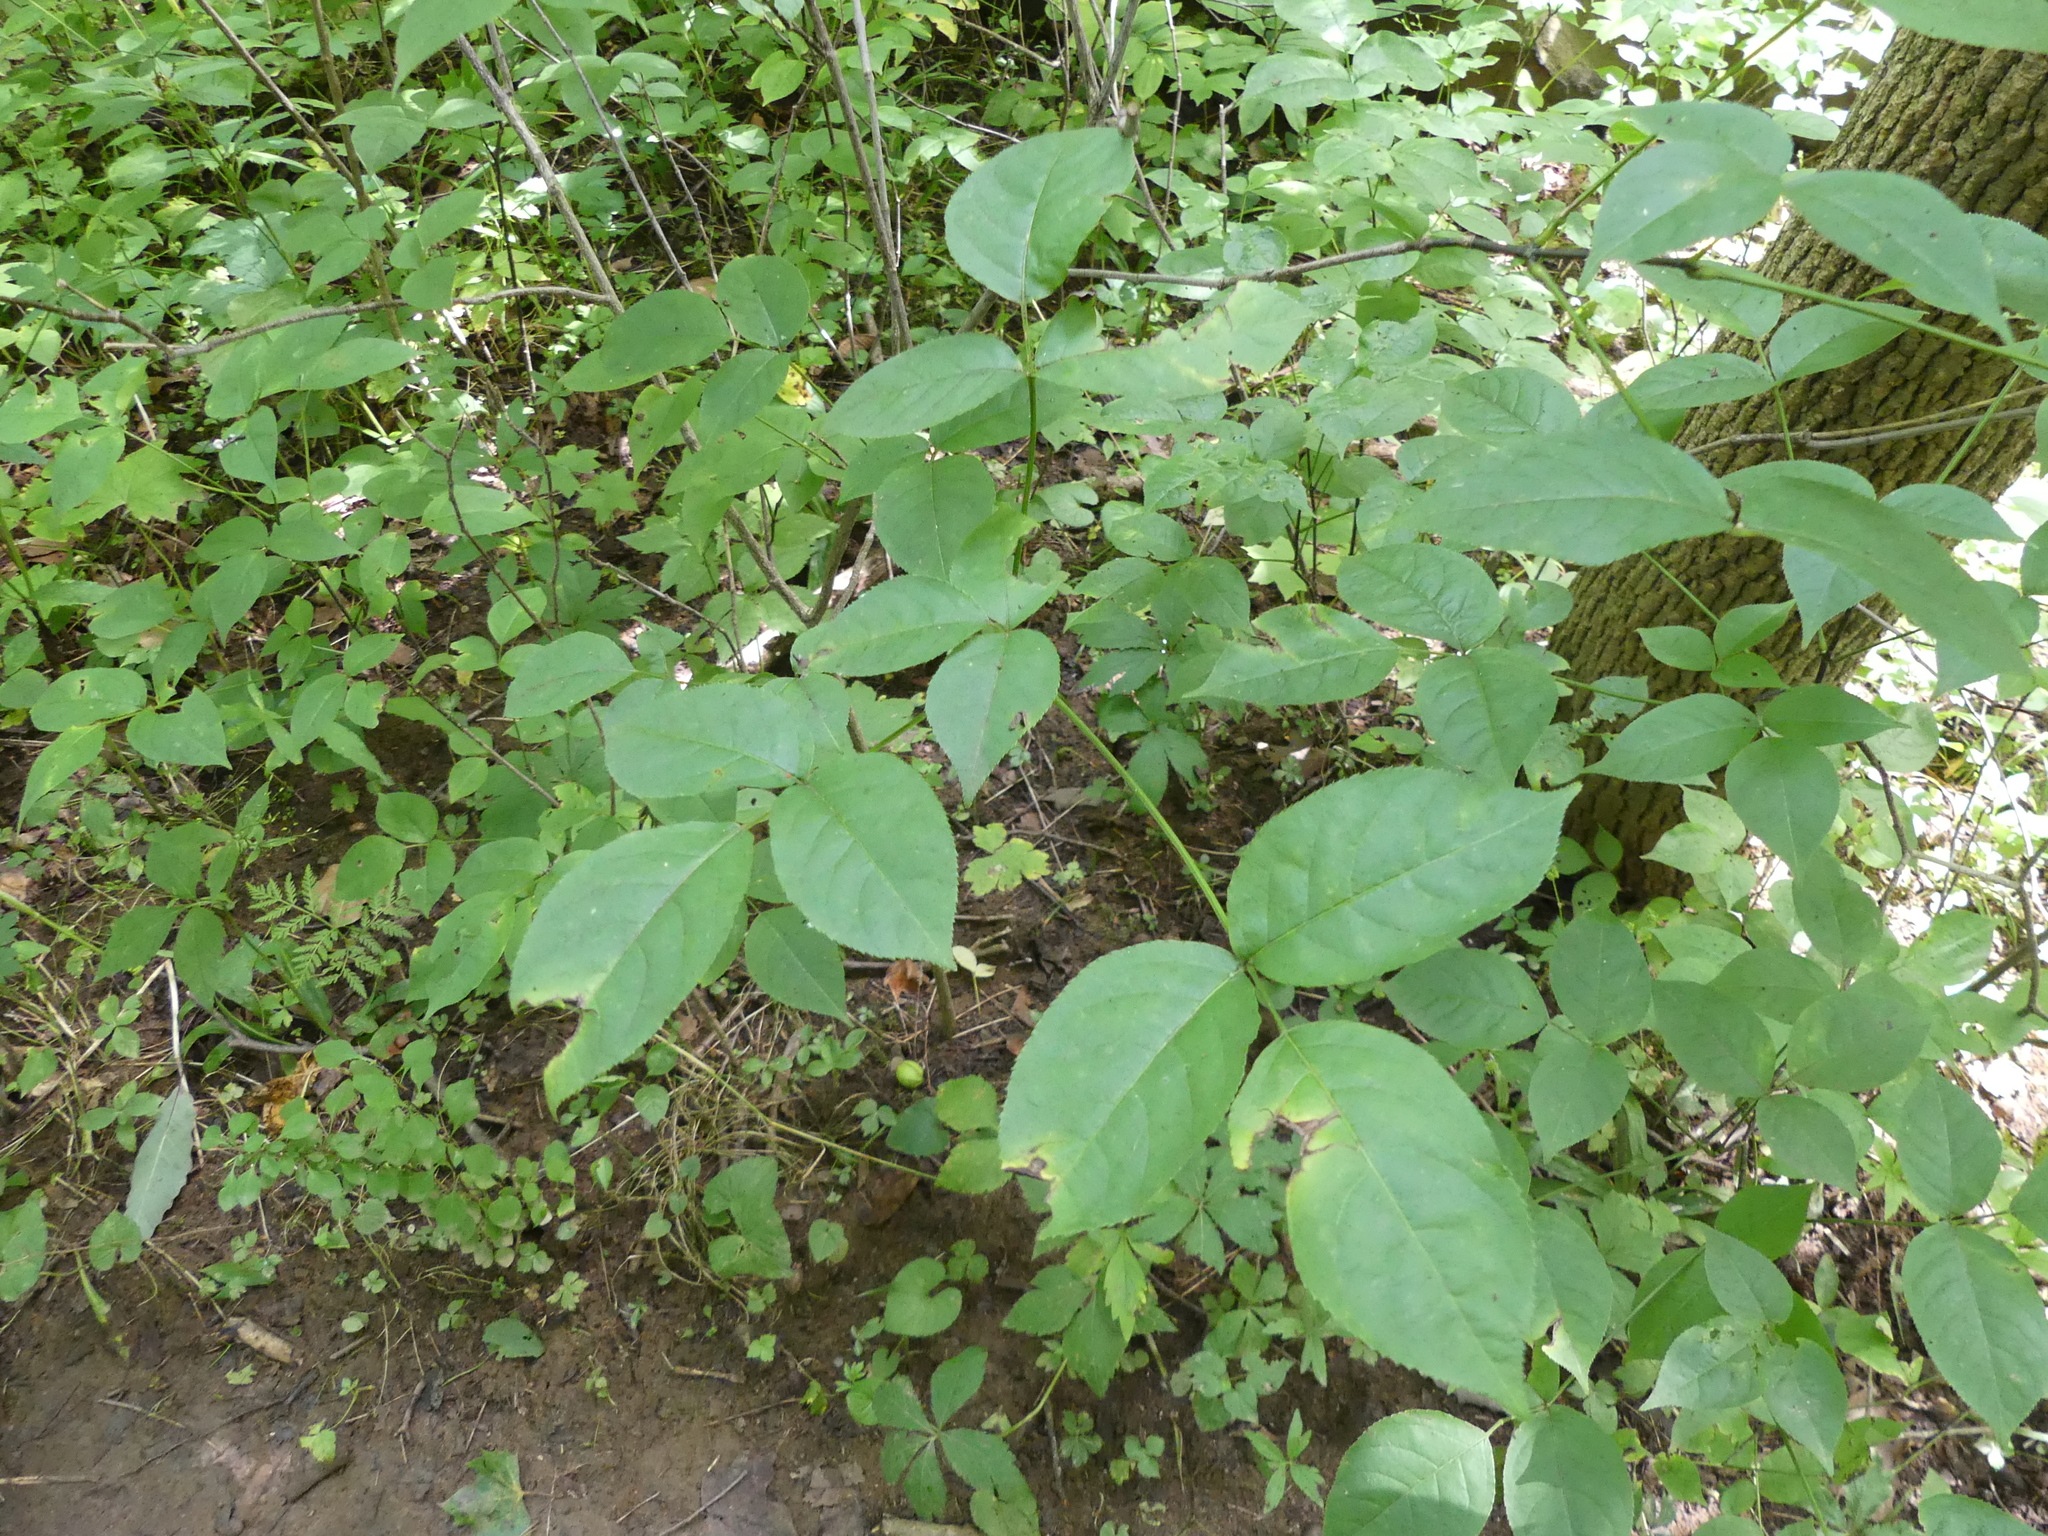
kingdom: Plantae
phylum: Tracheophyta
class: Magnoliopsida
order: Crossosomatales
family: Staphyleaceae
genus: Staphylea
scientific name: Staphylea trifolia
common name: American bladdernut
